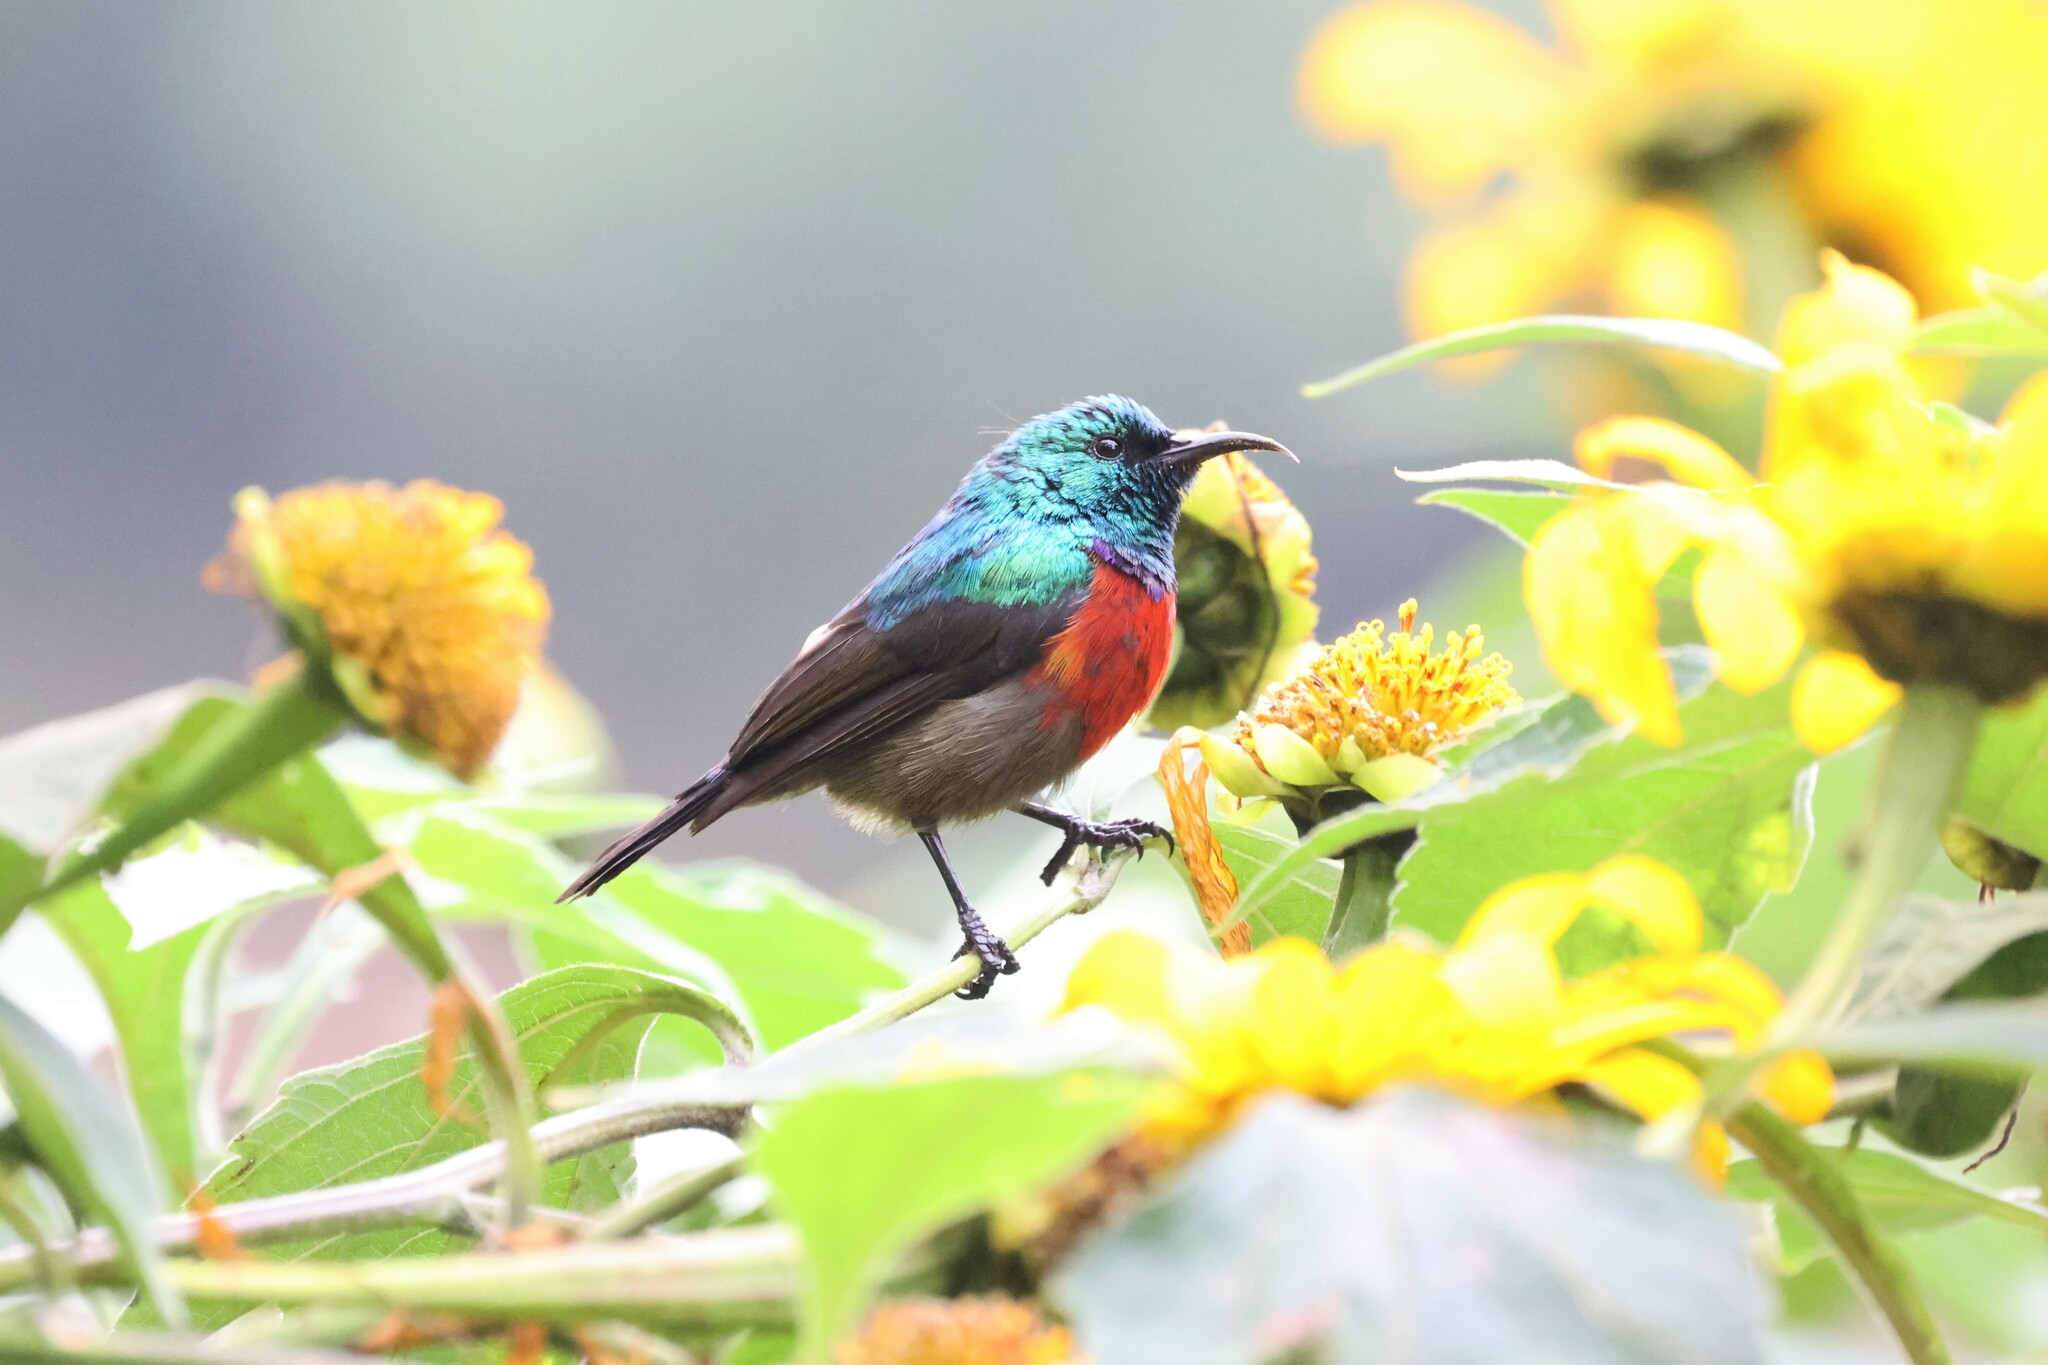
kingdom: Animalia
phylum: Chordata
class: Aves
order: Passeriformes
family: Nectariniidae
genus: Cinnyris
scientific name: Cinnyris reichenowi
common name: Northern double-collared sunbird
